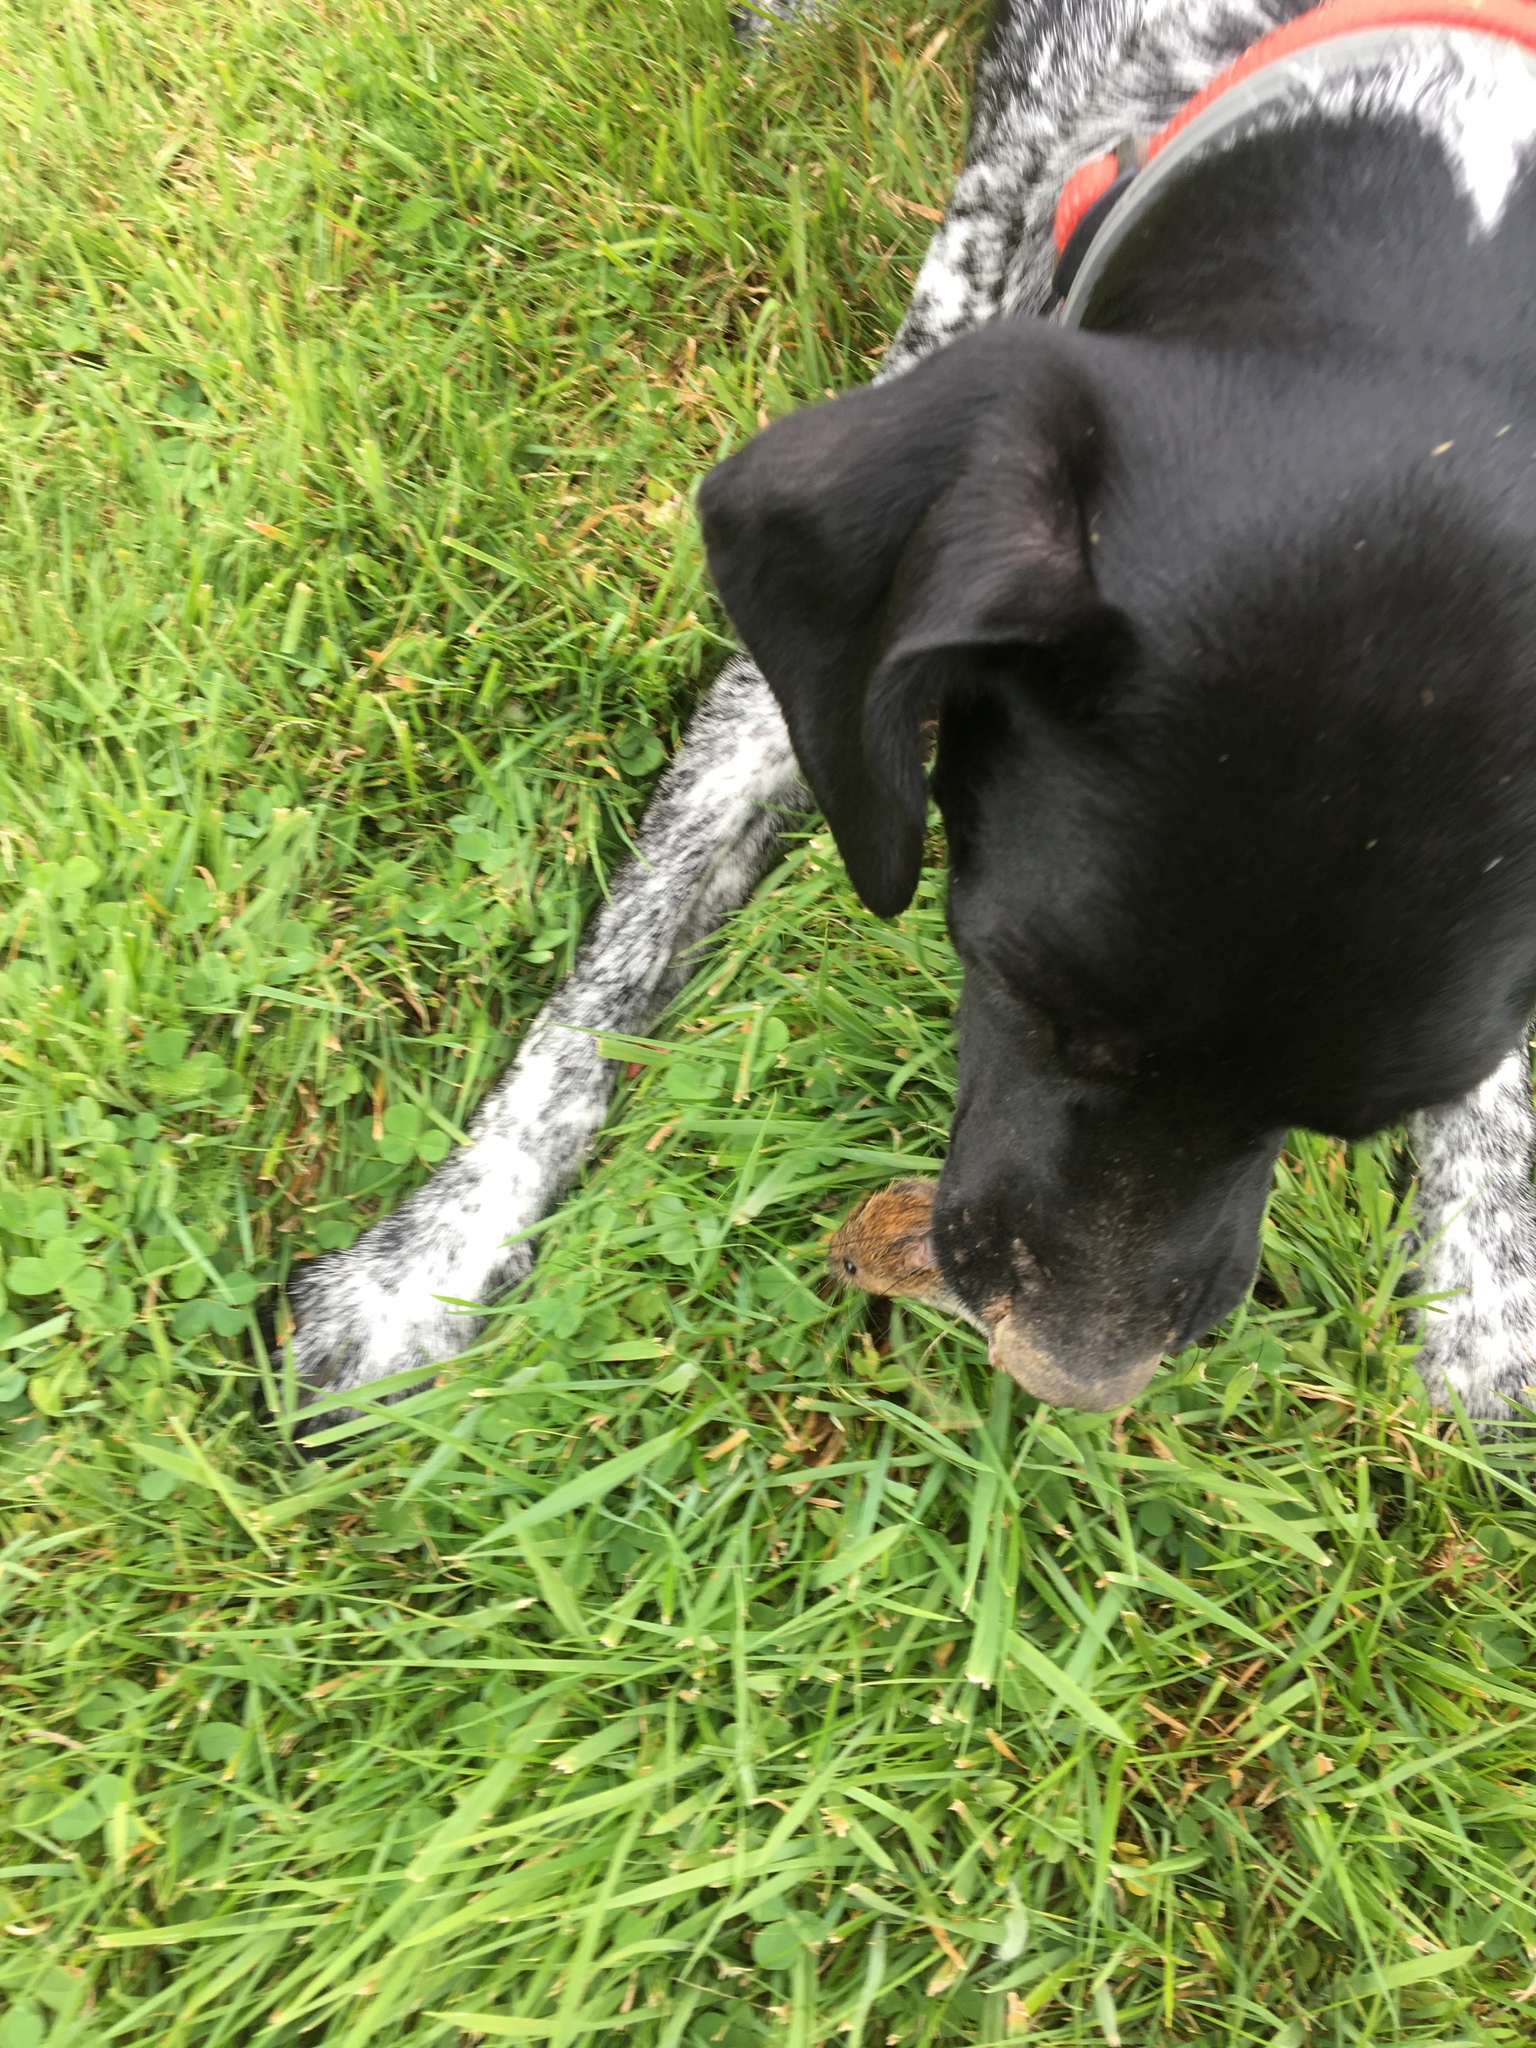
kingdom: Animalia
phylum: Chordata
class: Mammalia
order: Rodentia
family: Cricetidae
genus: Microtus
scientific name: Microtus agrestis
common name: Field vole
